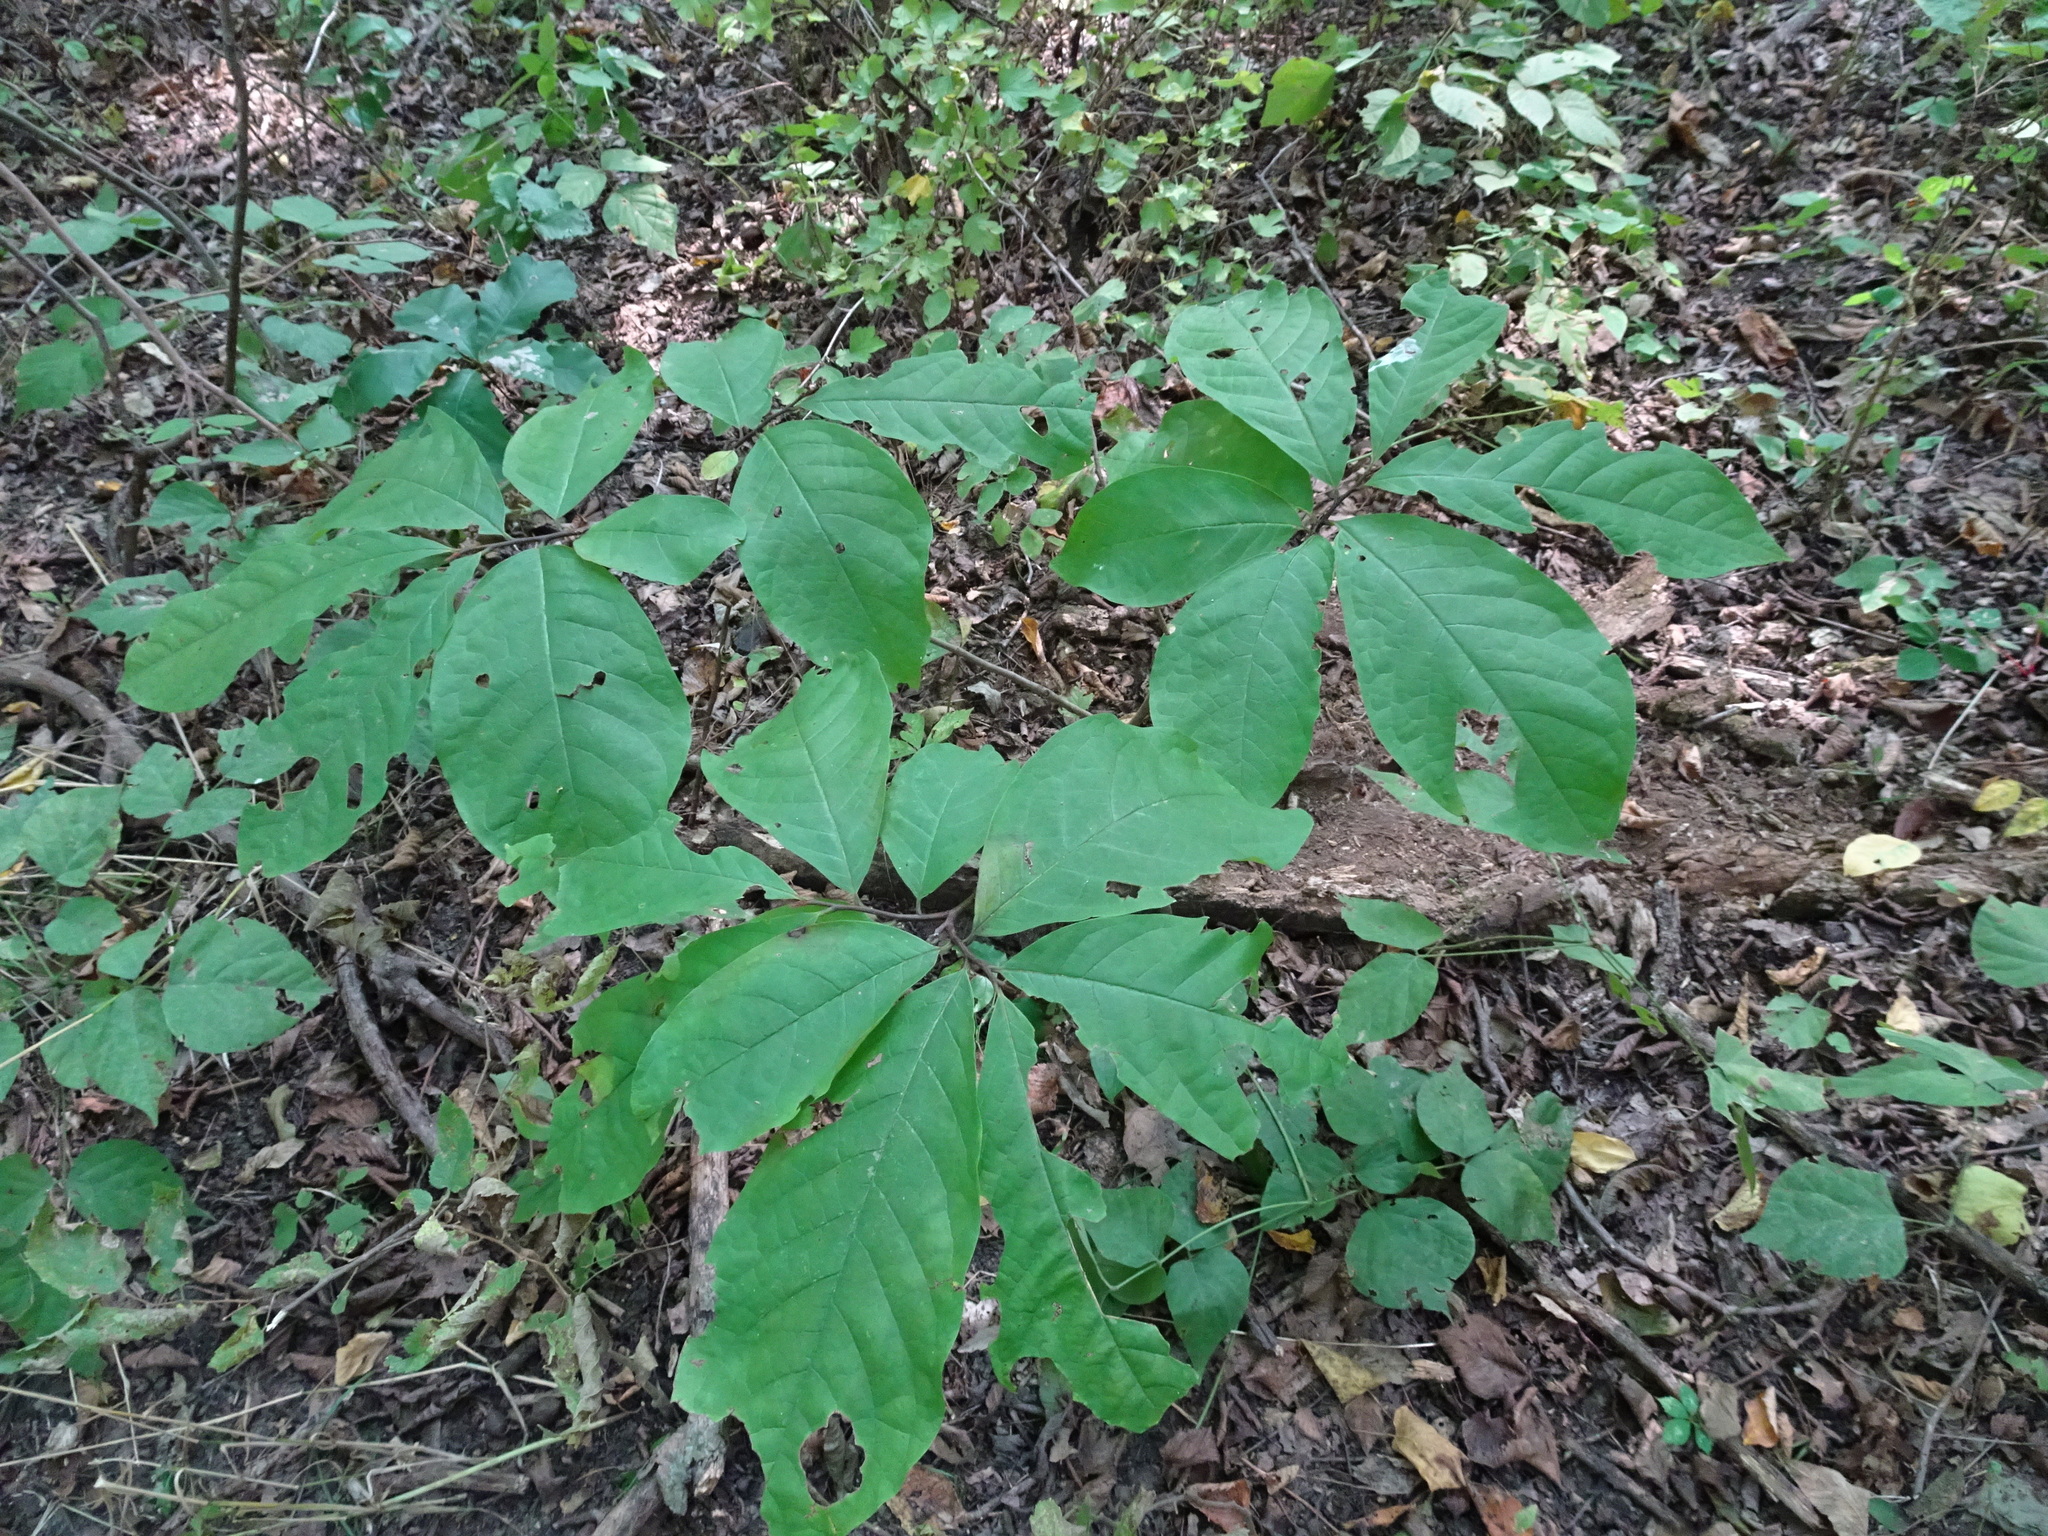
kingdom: Plantae
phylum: Tracheophyta
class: Magnoliopsida
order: Magnoliales
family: Annonaceae
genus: Asimina
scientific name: Asimina triloba
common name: Dog-banana
